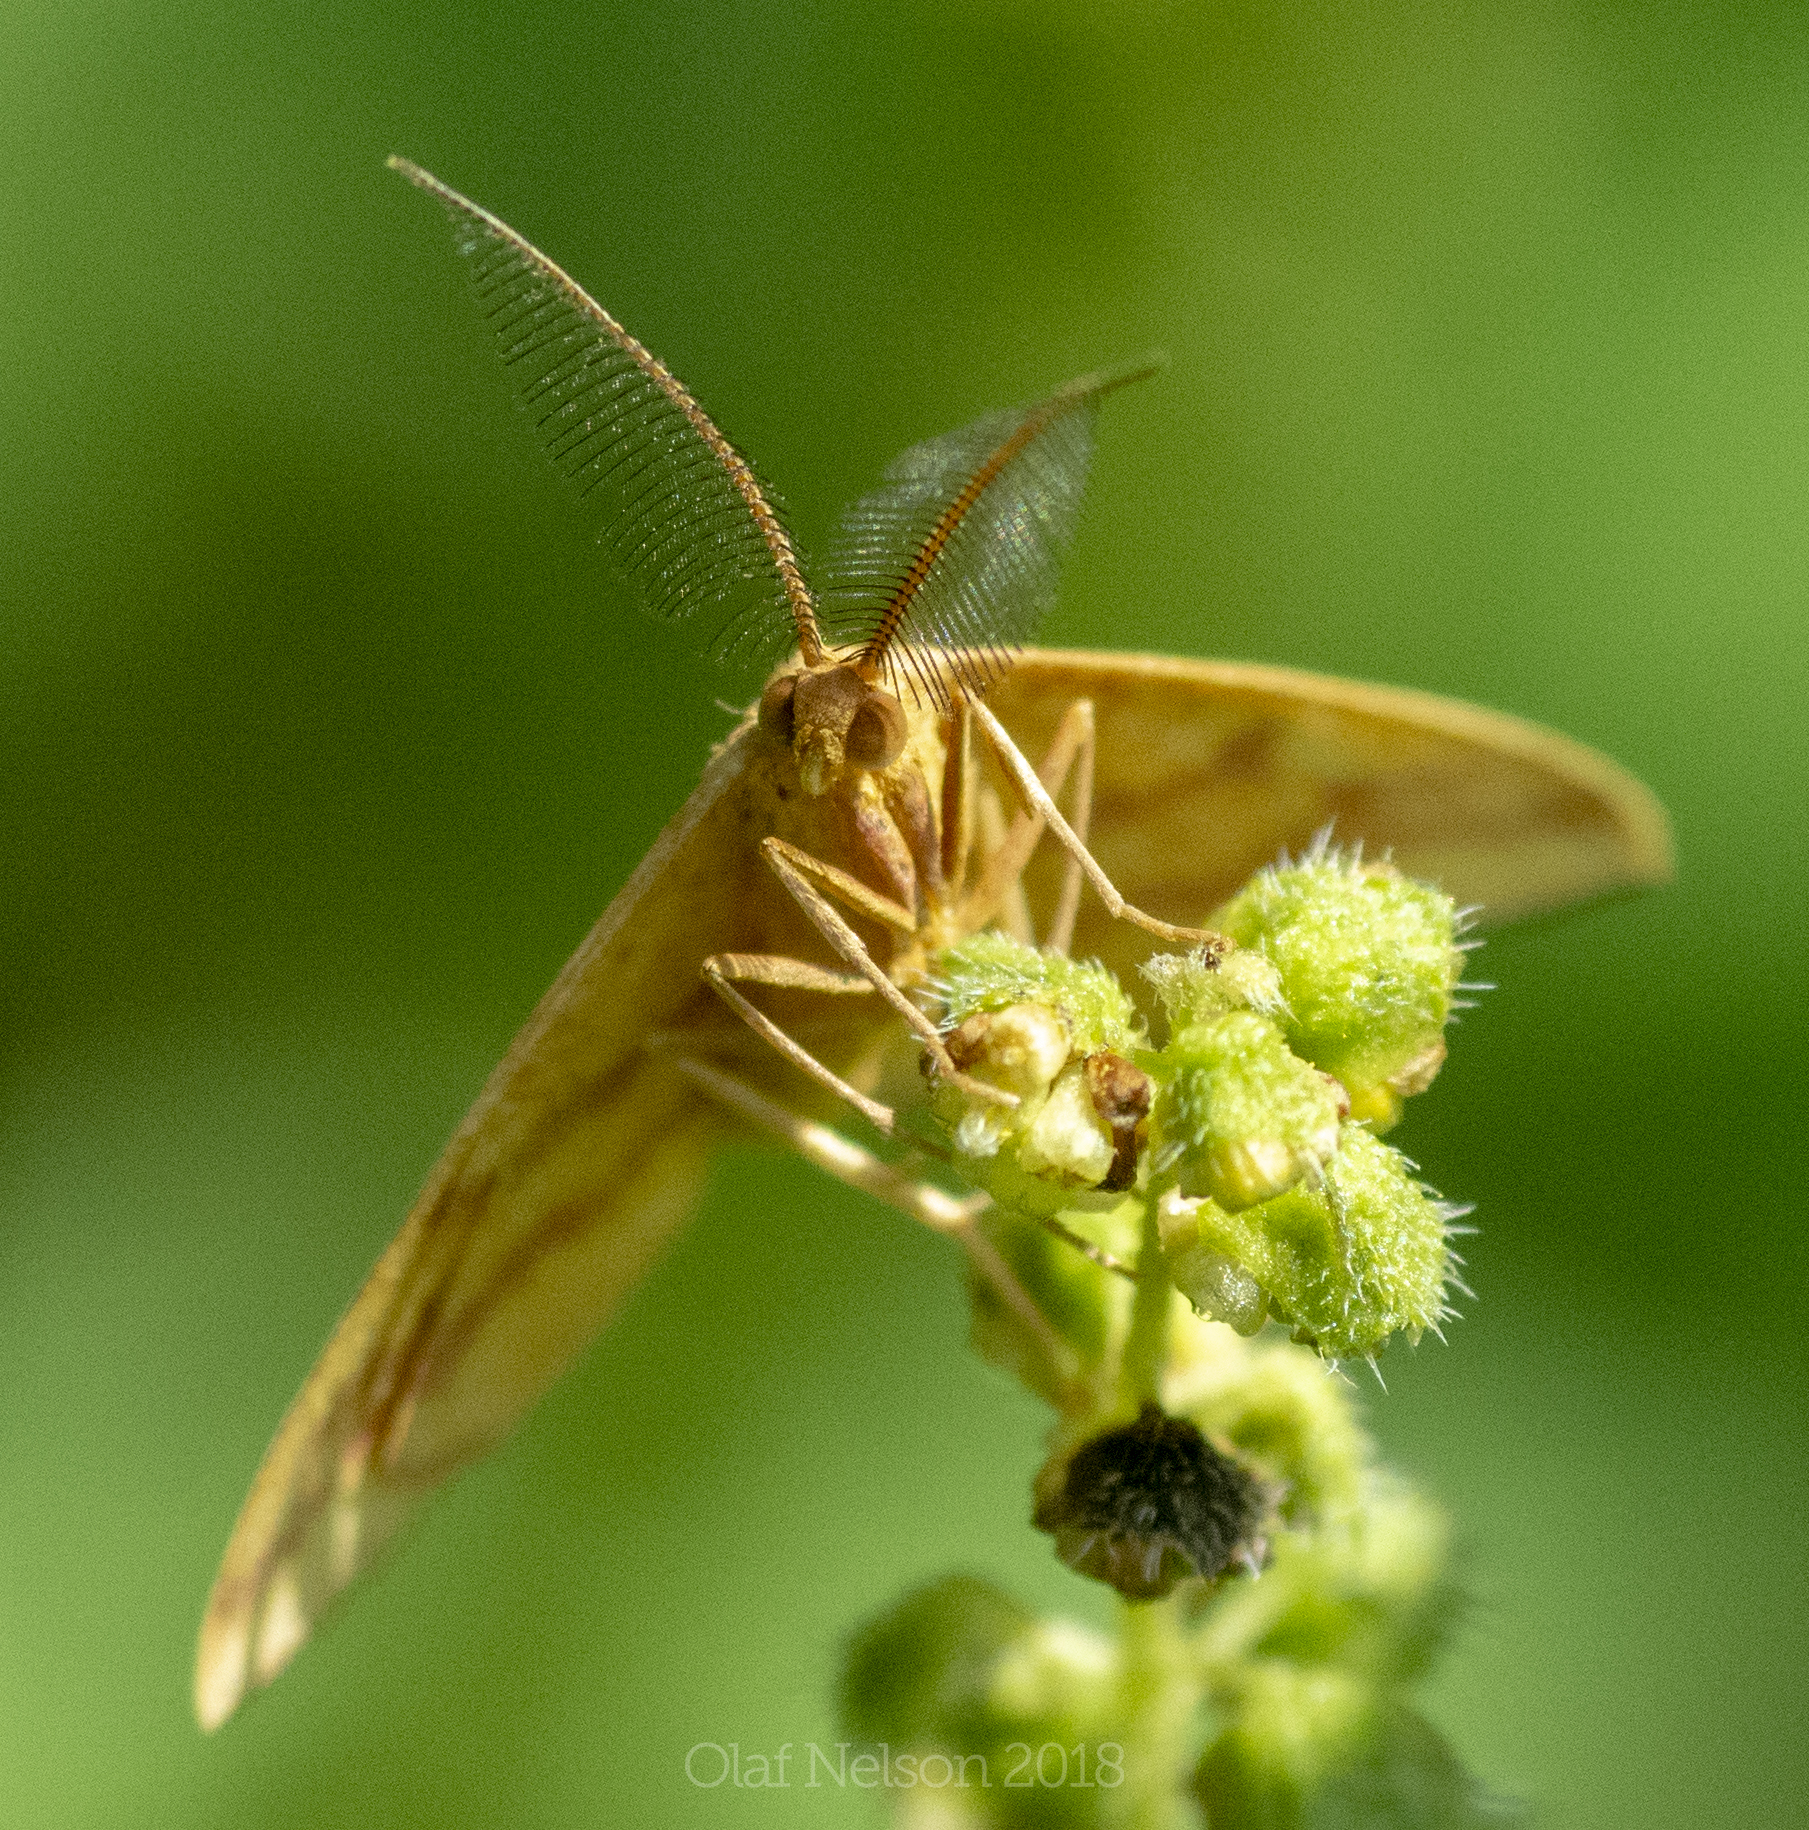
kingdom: Animalia
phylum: Arthropoda
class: Insecta
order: Lepidoptera
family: Geometridae
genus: Haematopis
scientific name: Haematopis grataria
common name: Chickweed geometer
